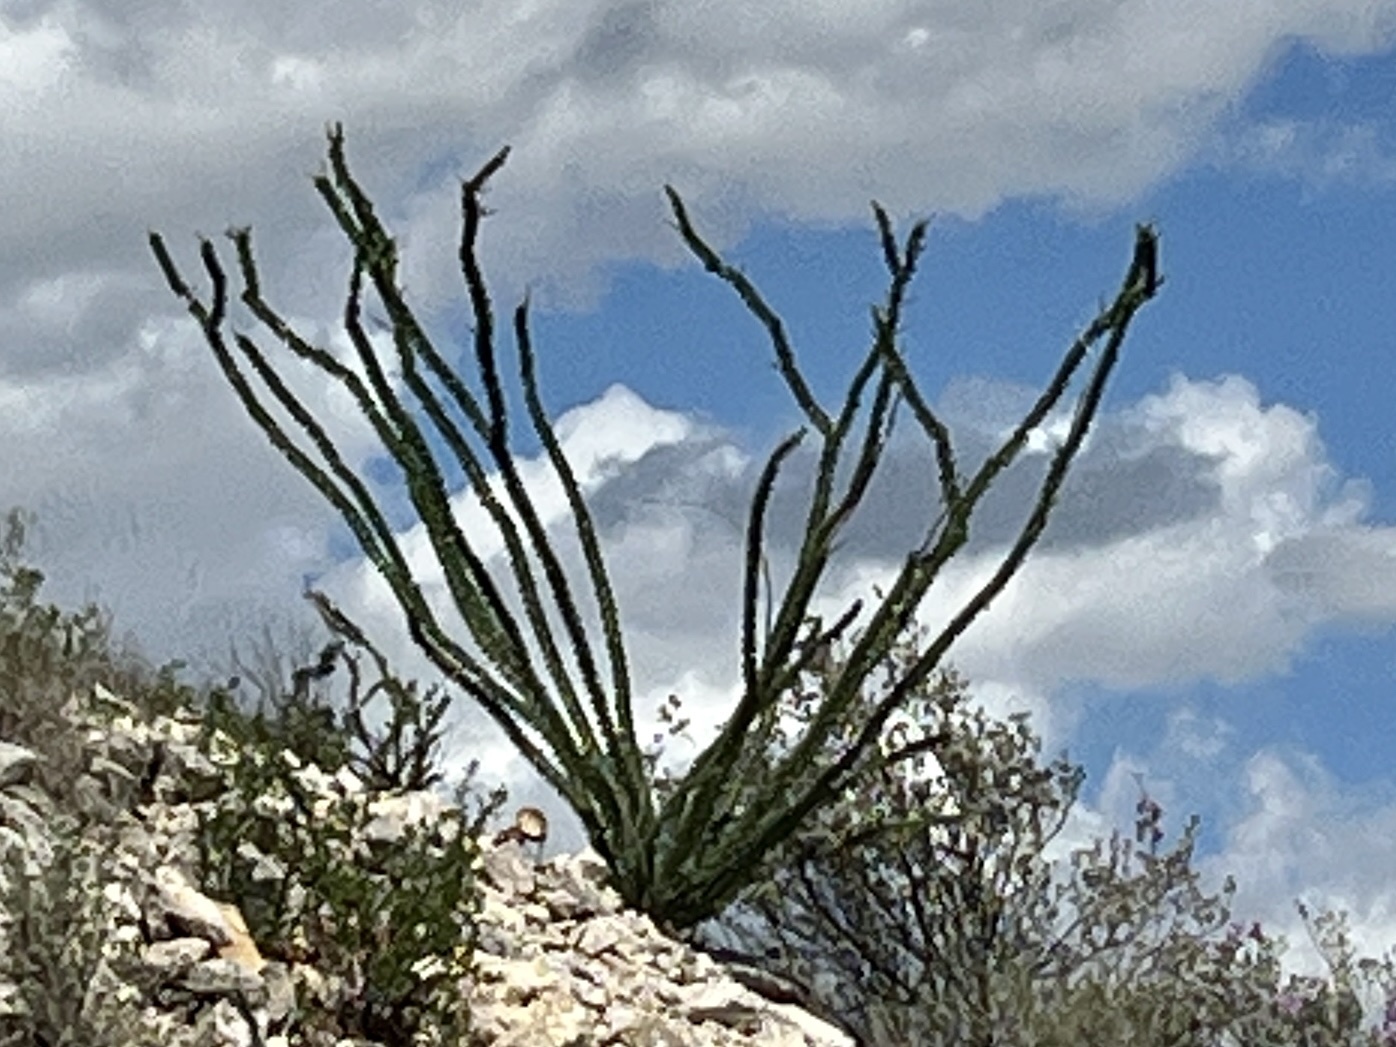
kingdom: Plantae
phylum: Tracheophyta
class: Magnoliopsida
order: Ericales
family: Fouquieriaceae
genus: Fouquieria
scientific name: Fouquieria splendens
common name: Vine-cactus
